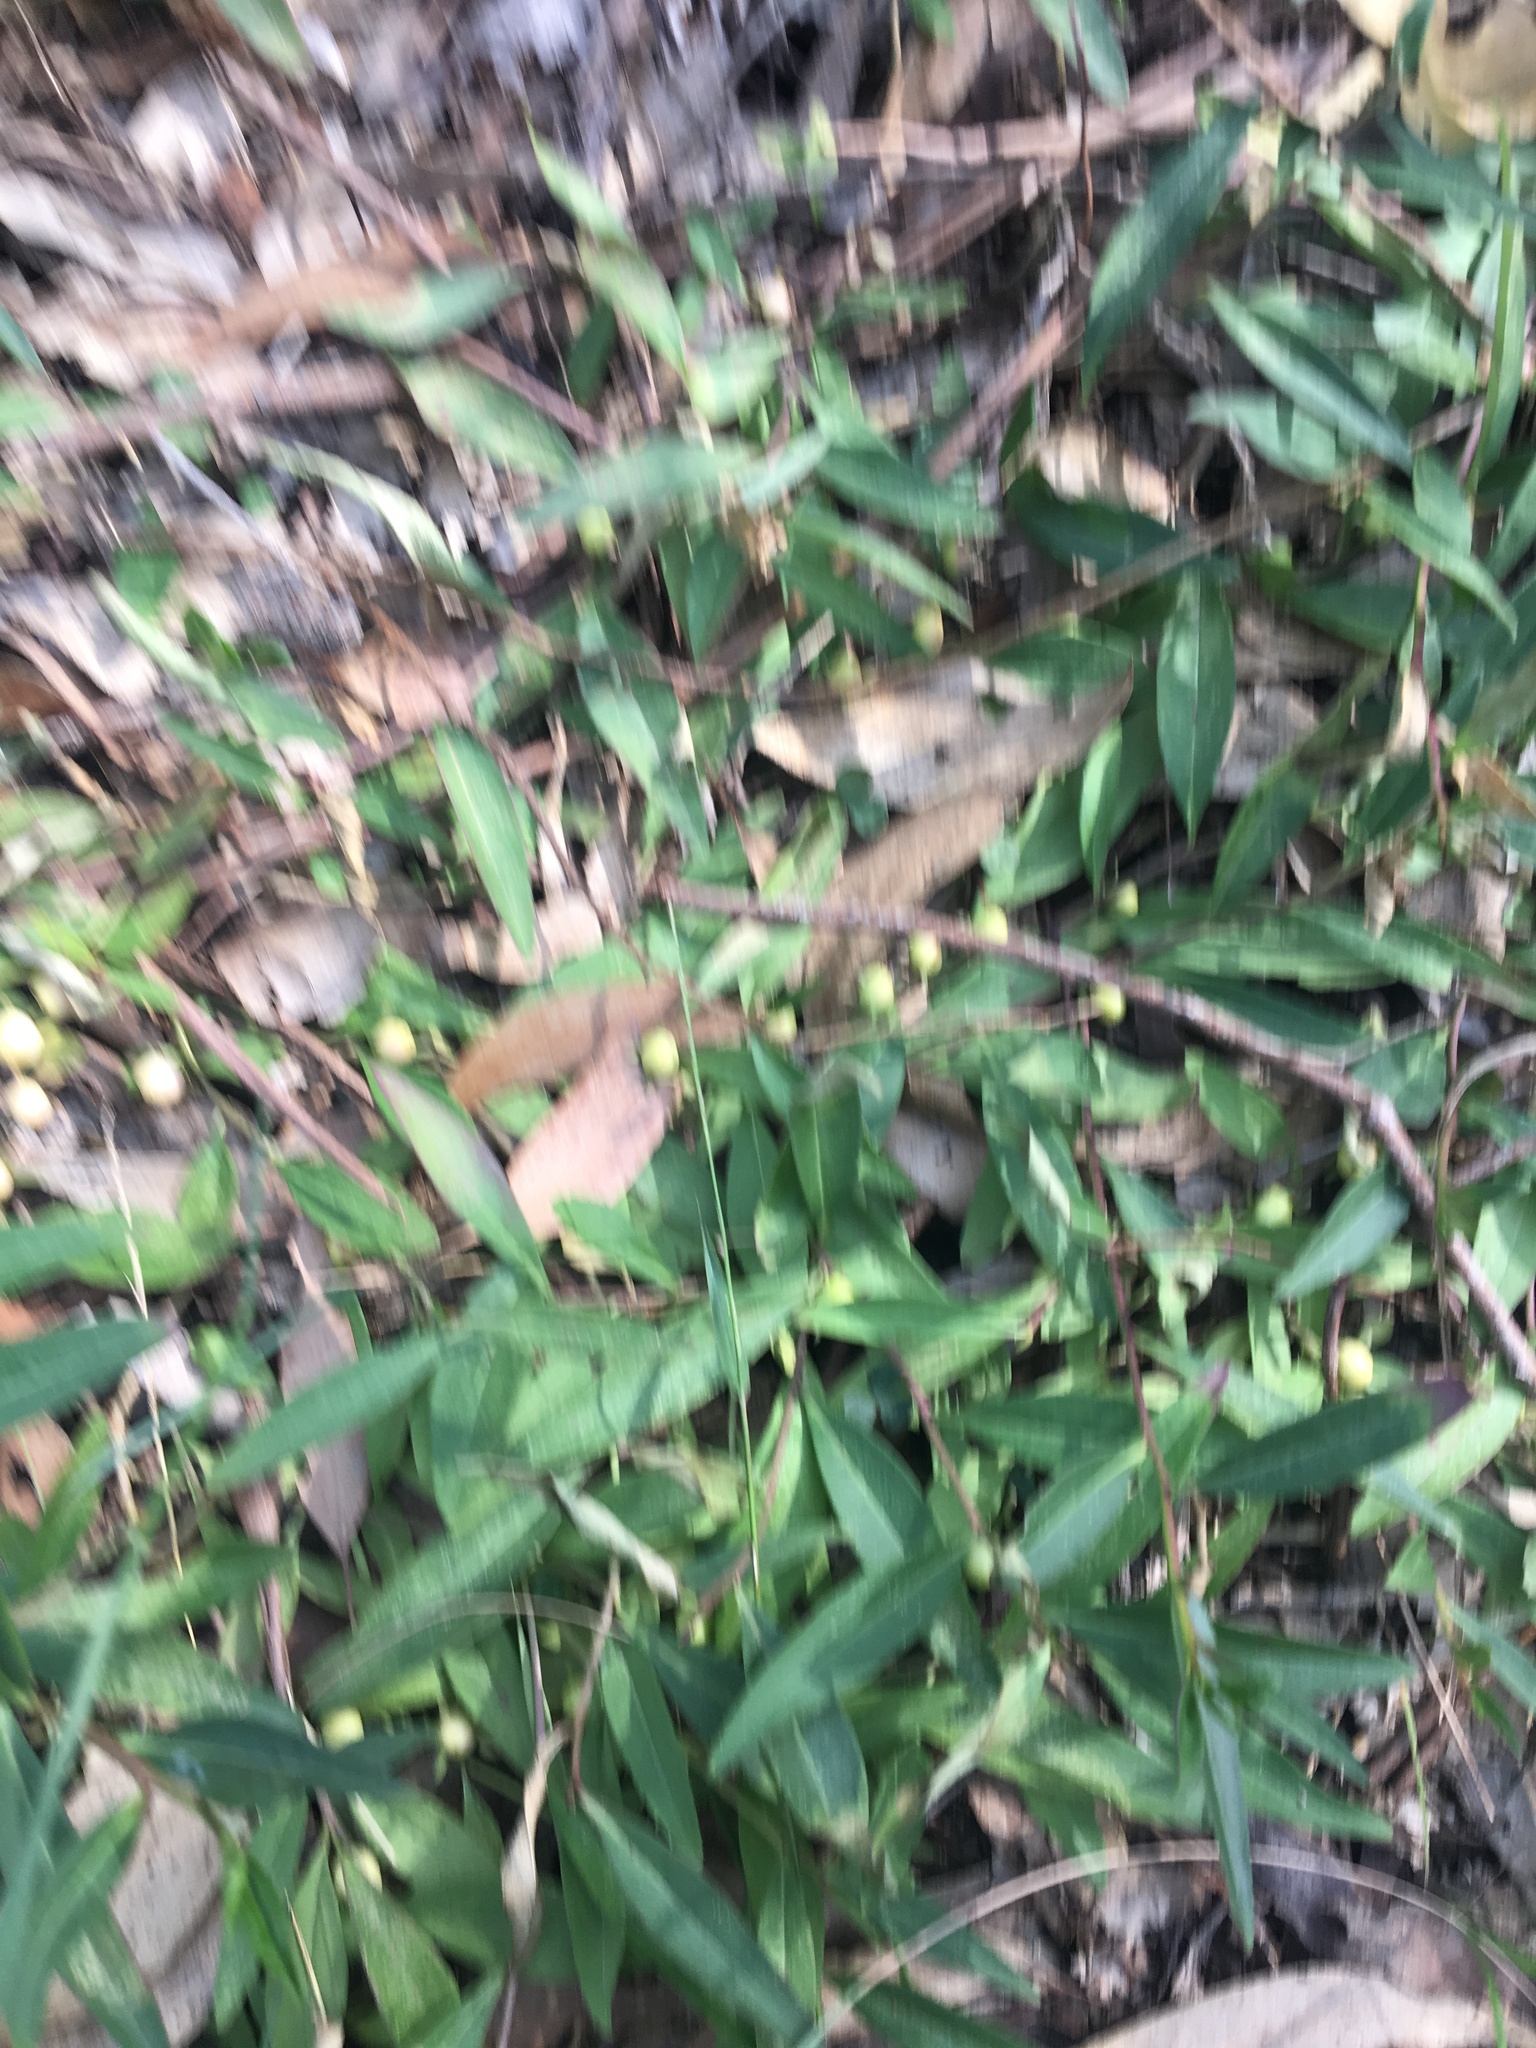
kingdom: Plantae
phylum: Tracheophyta
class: Magnoliopsida
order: Lamiales
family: Scrophulariaceae
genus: Eremophila
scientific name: Eremophila debilis
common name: Winter-apple
